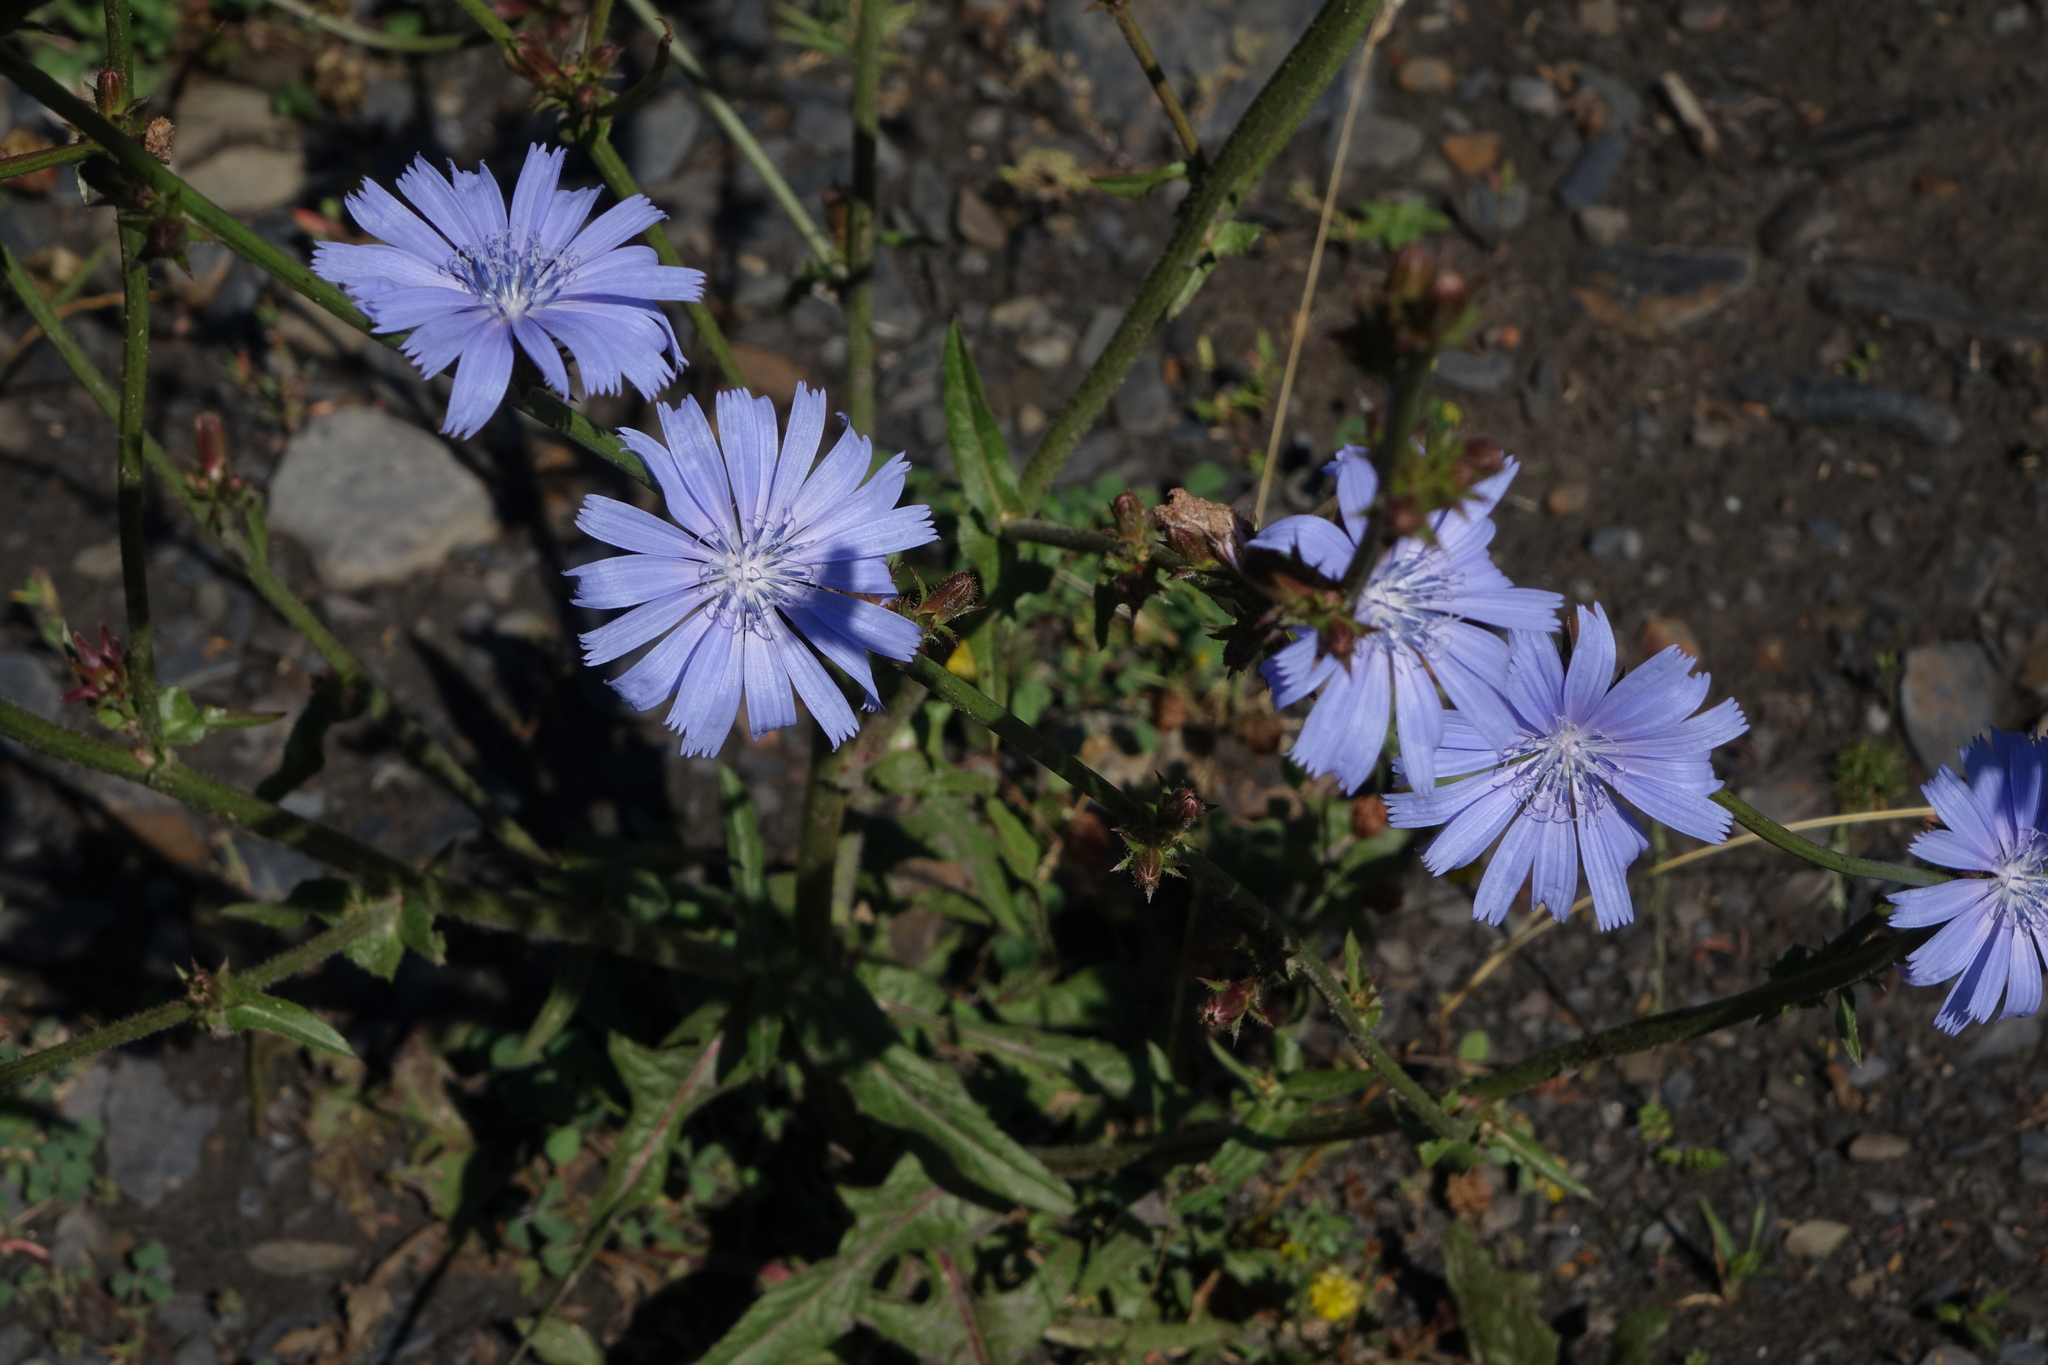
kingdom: Plantae
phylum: Tracheophyta
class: Magnoliopsida
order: Asterales
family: Asteraceae
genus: Cichorium
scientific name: Cichorium intybus
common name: Chicory
